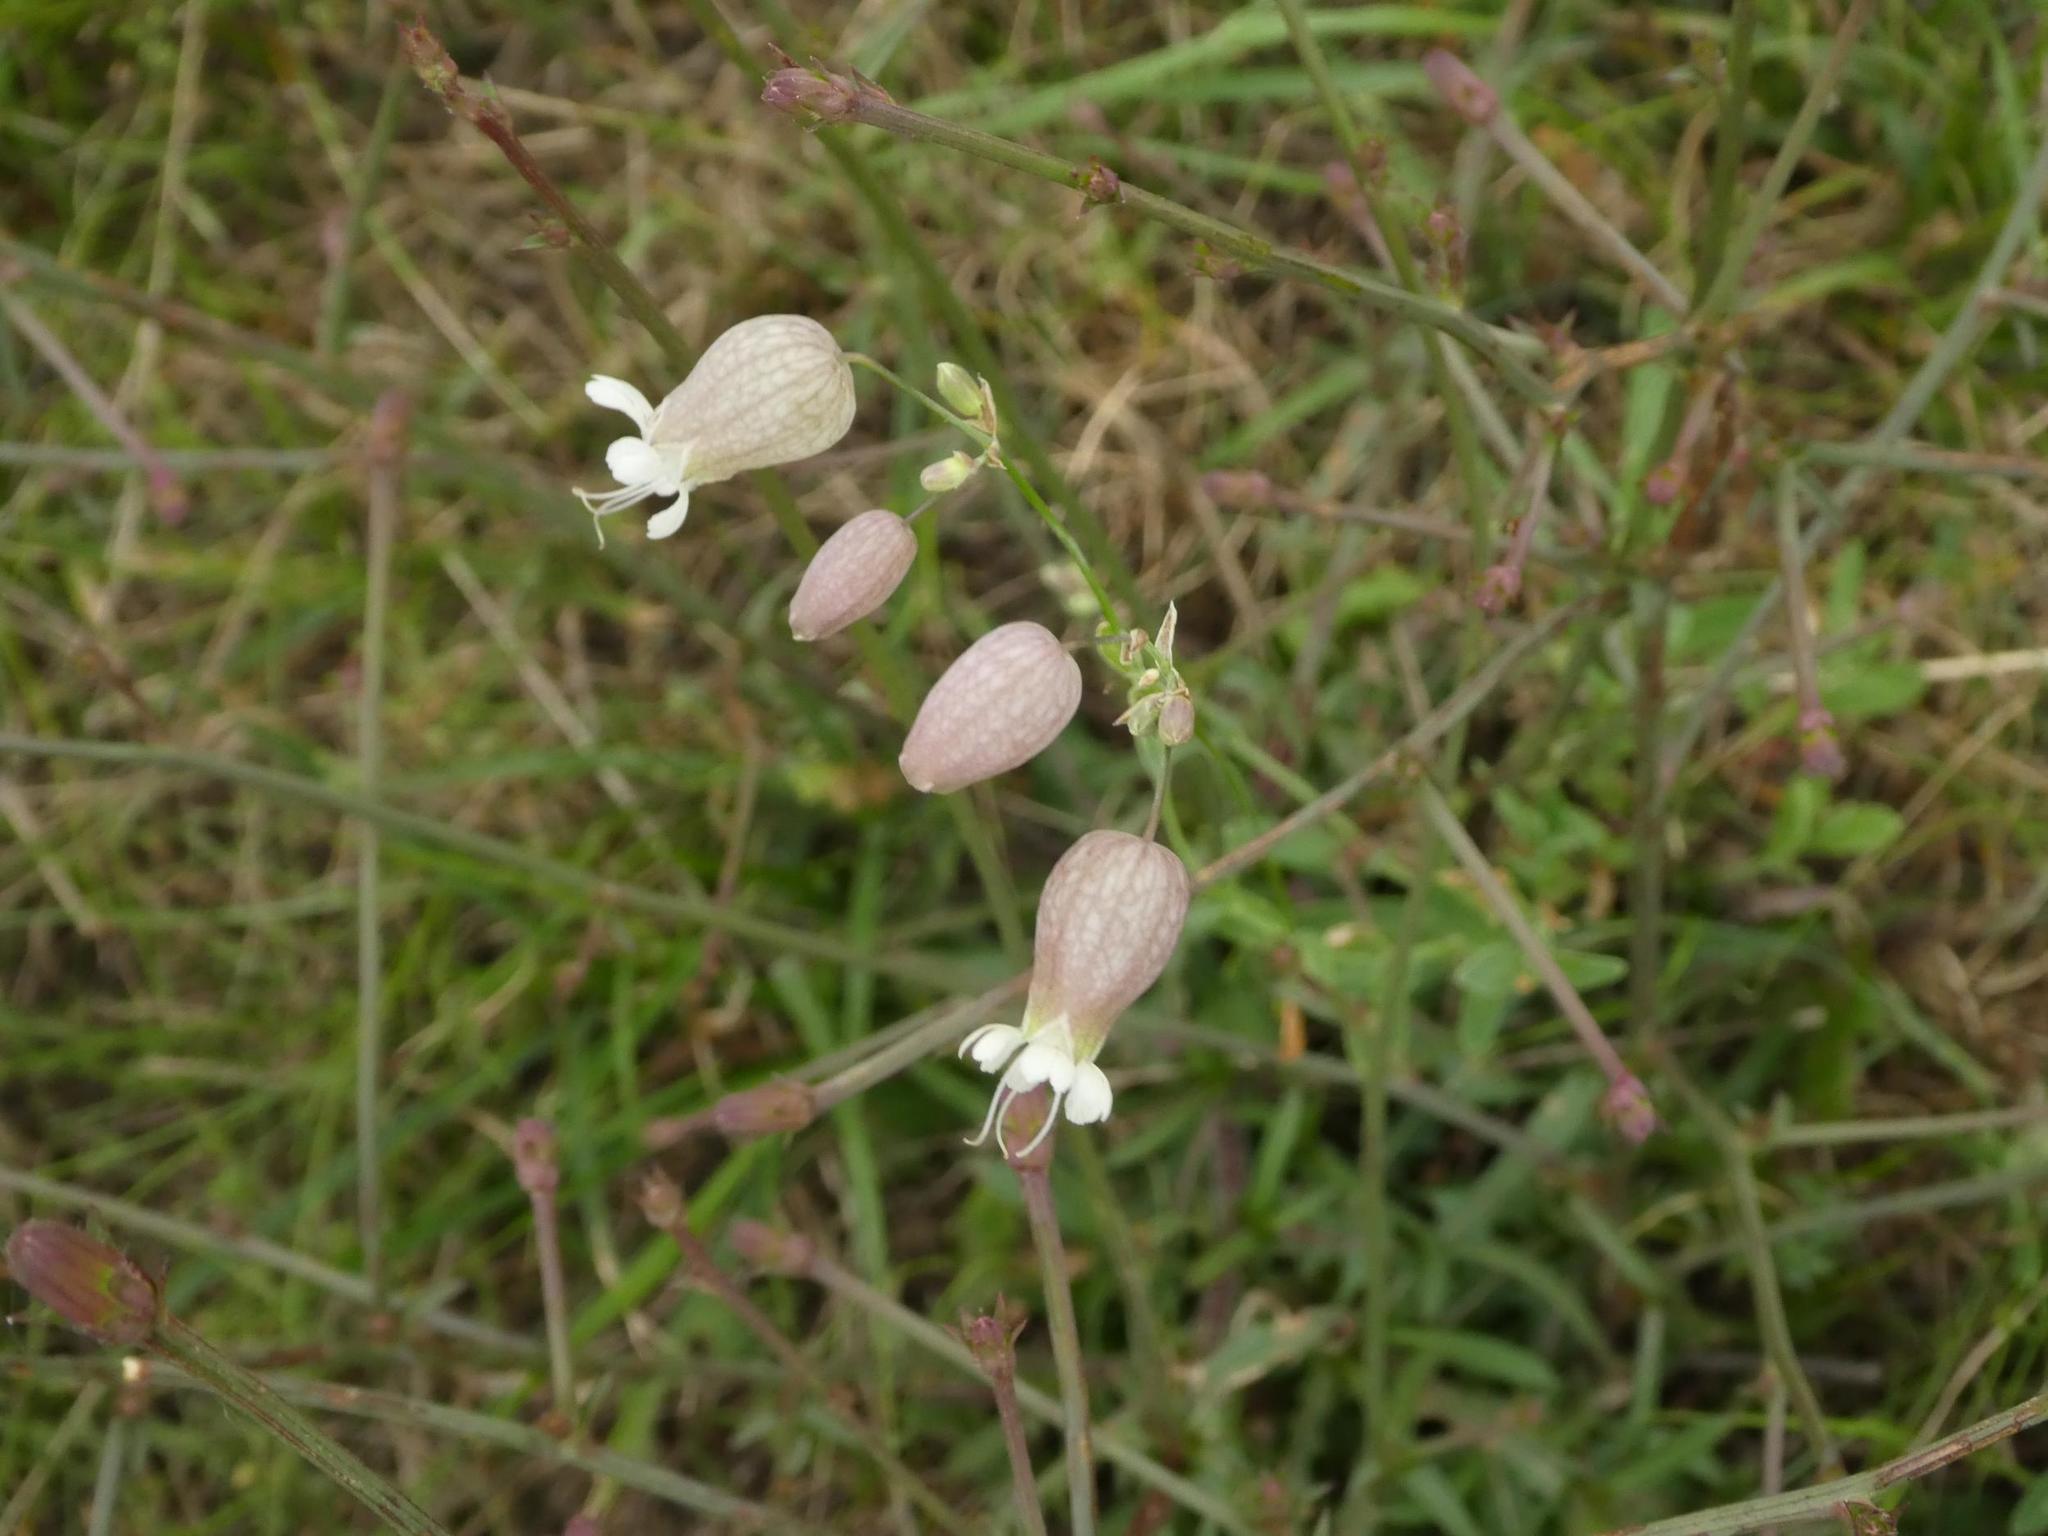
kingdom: Plantae
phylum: Tracheophyta
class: Magnoliopsida
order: Caryophyllales
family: Caryophyllaceae
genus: Silene
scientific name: Silene vulgaris
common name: Bladder campion
